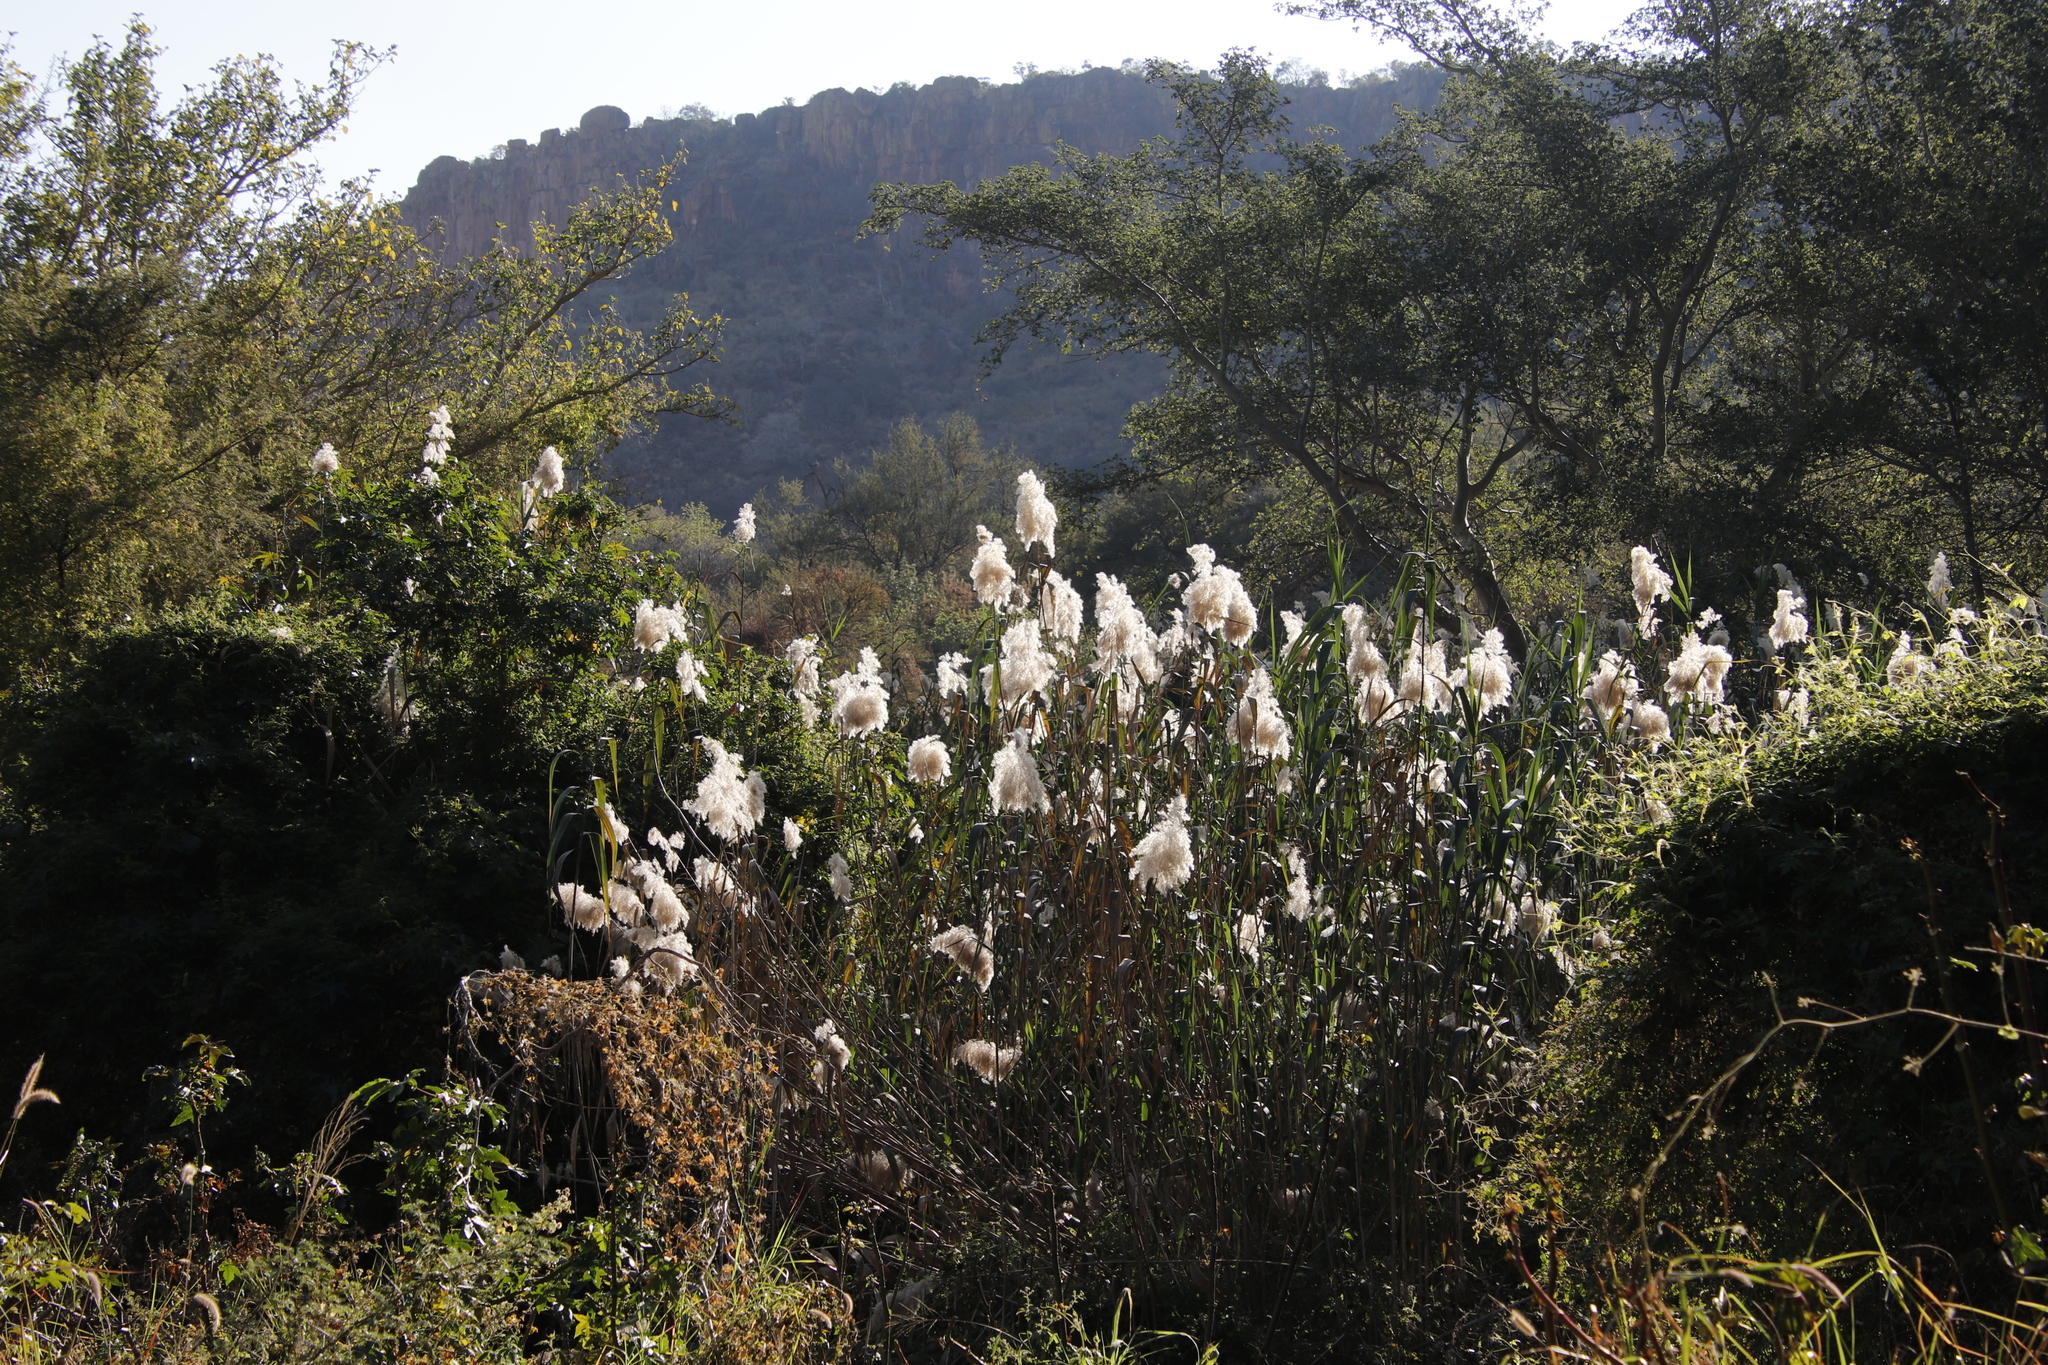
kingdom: Plantae
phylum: Tracheophyta
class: Liliopsida
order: Poales
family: Poaceae
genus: Phragmites
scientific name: Phragmites australis
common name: Common reed
